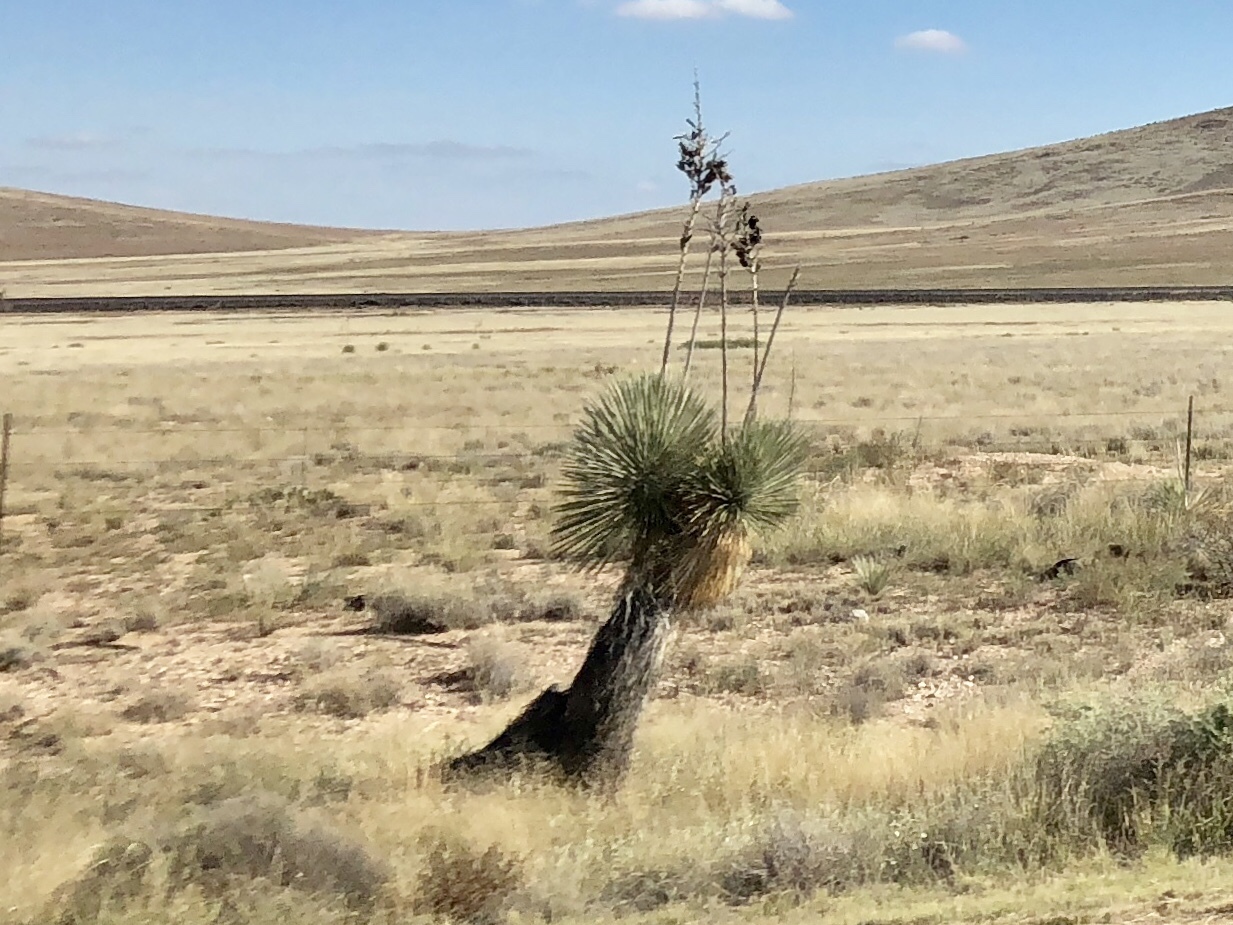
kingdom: Plantae
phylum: Tracheophyta
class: Liliopsida
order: Asparagales
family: Asparagaceae
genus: Yucca
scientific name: Yucca elata
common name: Palmella
